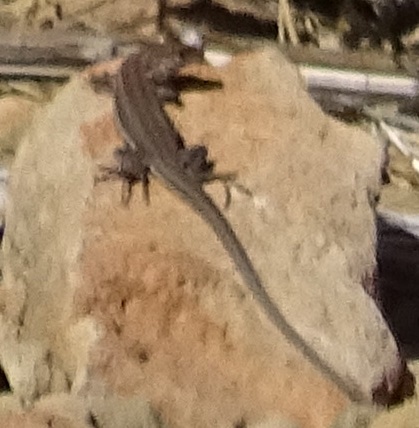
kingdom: Animalia
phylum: Chordata
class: Squamata
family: Lacertidae
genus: Gallotia
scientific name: Gallotia galloti
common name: Gallot's lizard
